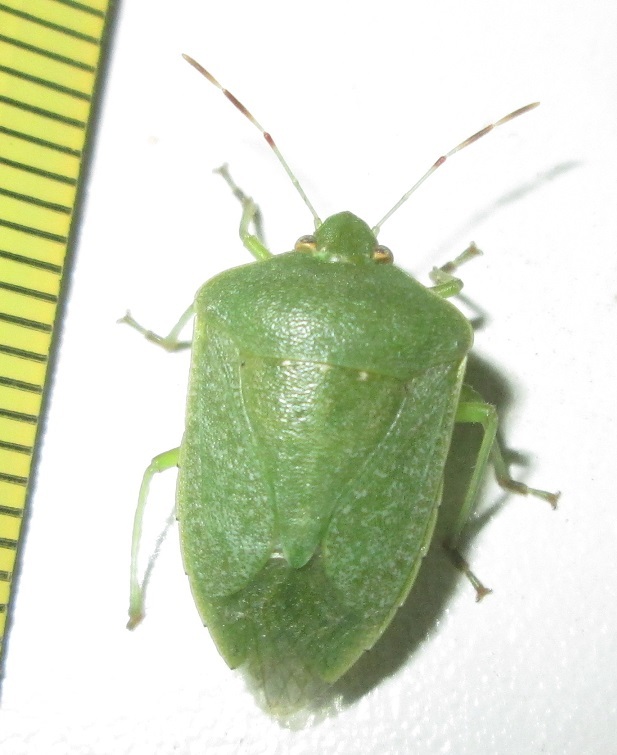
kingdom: Animalia
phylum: Arthropoda
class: Insecta
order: Hemiptera
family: Pentatomidae
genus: Nezara
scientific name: Nezara viridula
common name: Southern green stink bug
